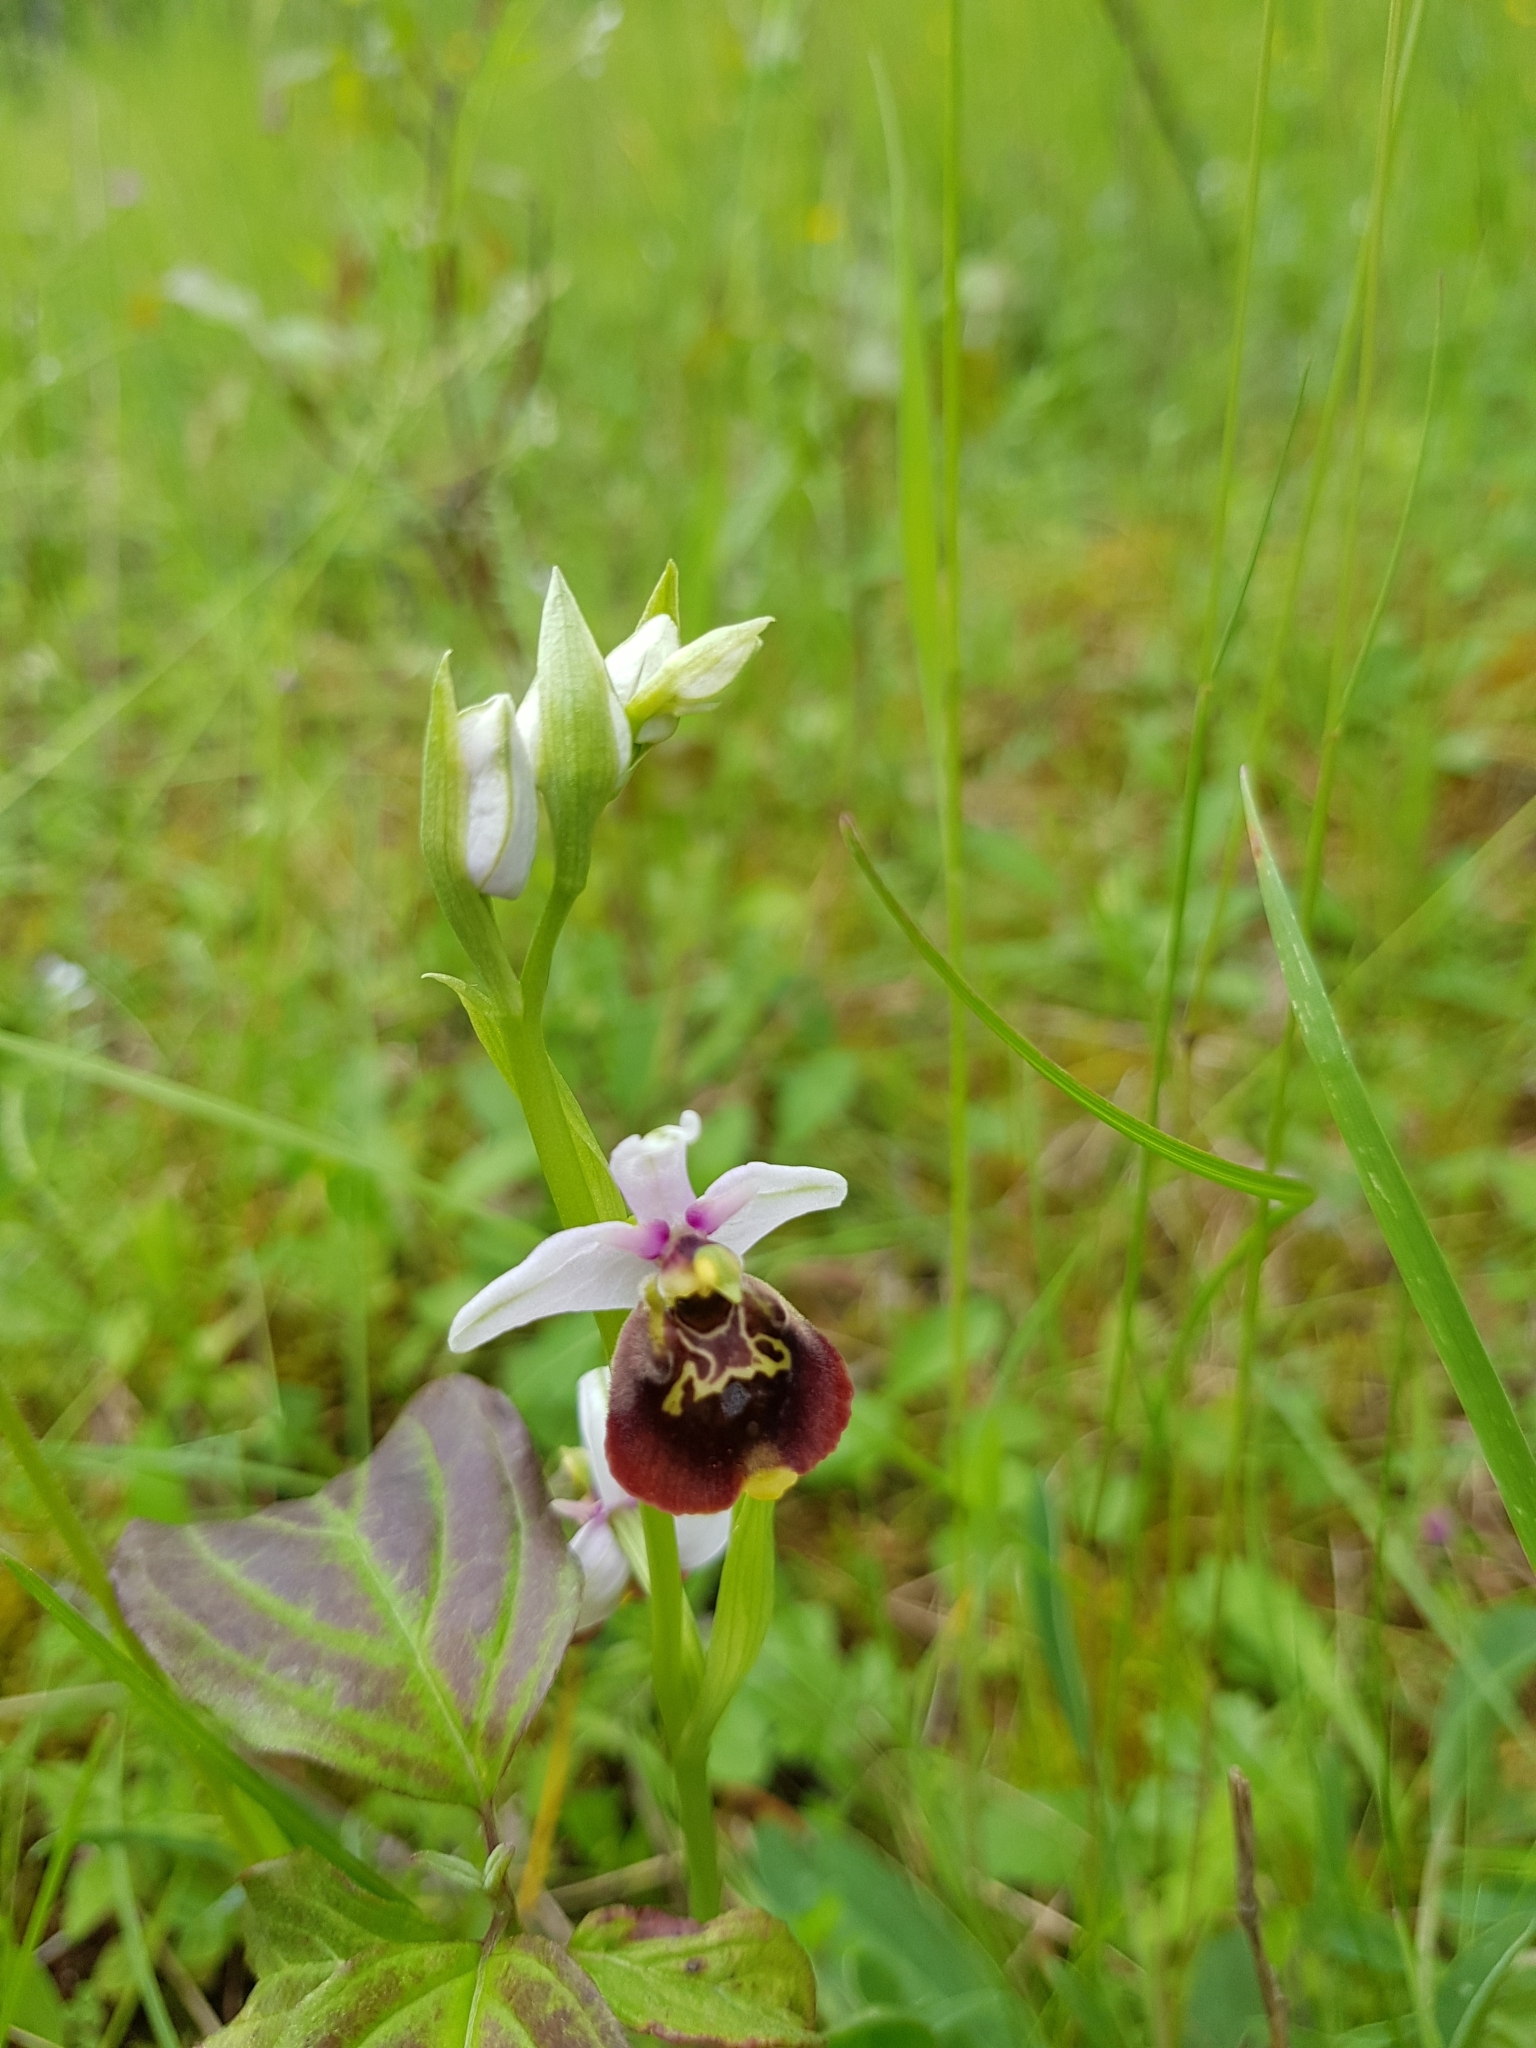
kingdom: Plantae
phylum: Tracheophyta
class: Liliopsida
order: Asparagales
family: Orchidaceae
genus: Ophrys
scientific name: Ophrys holosericea
